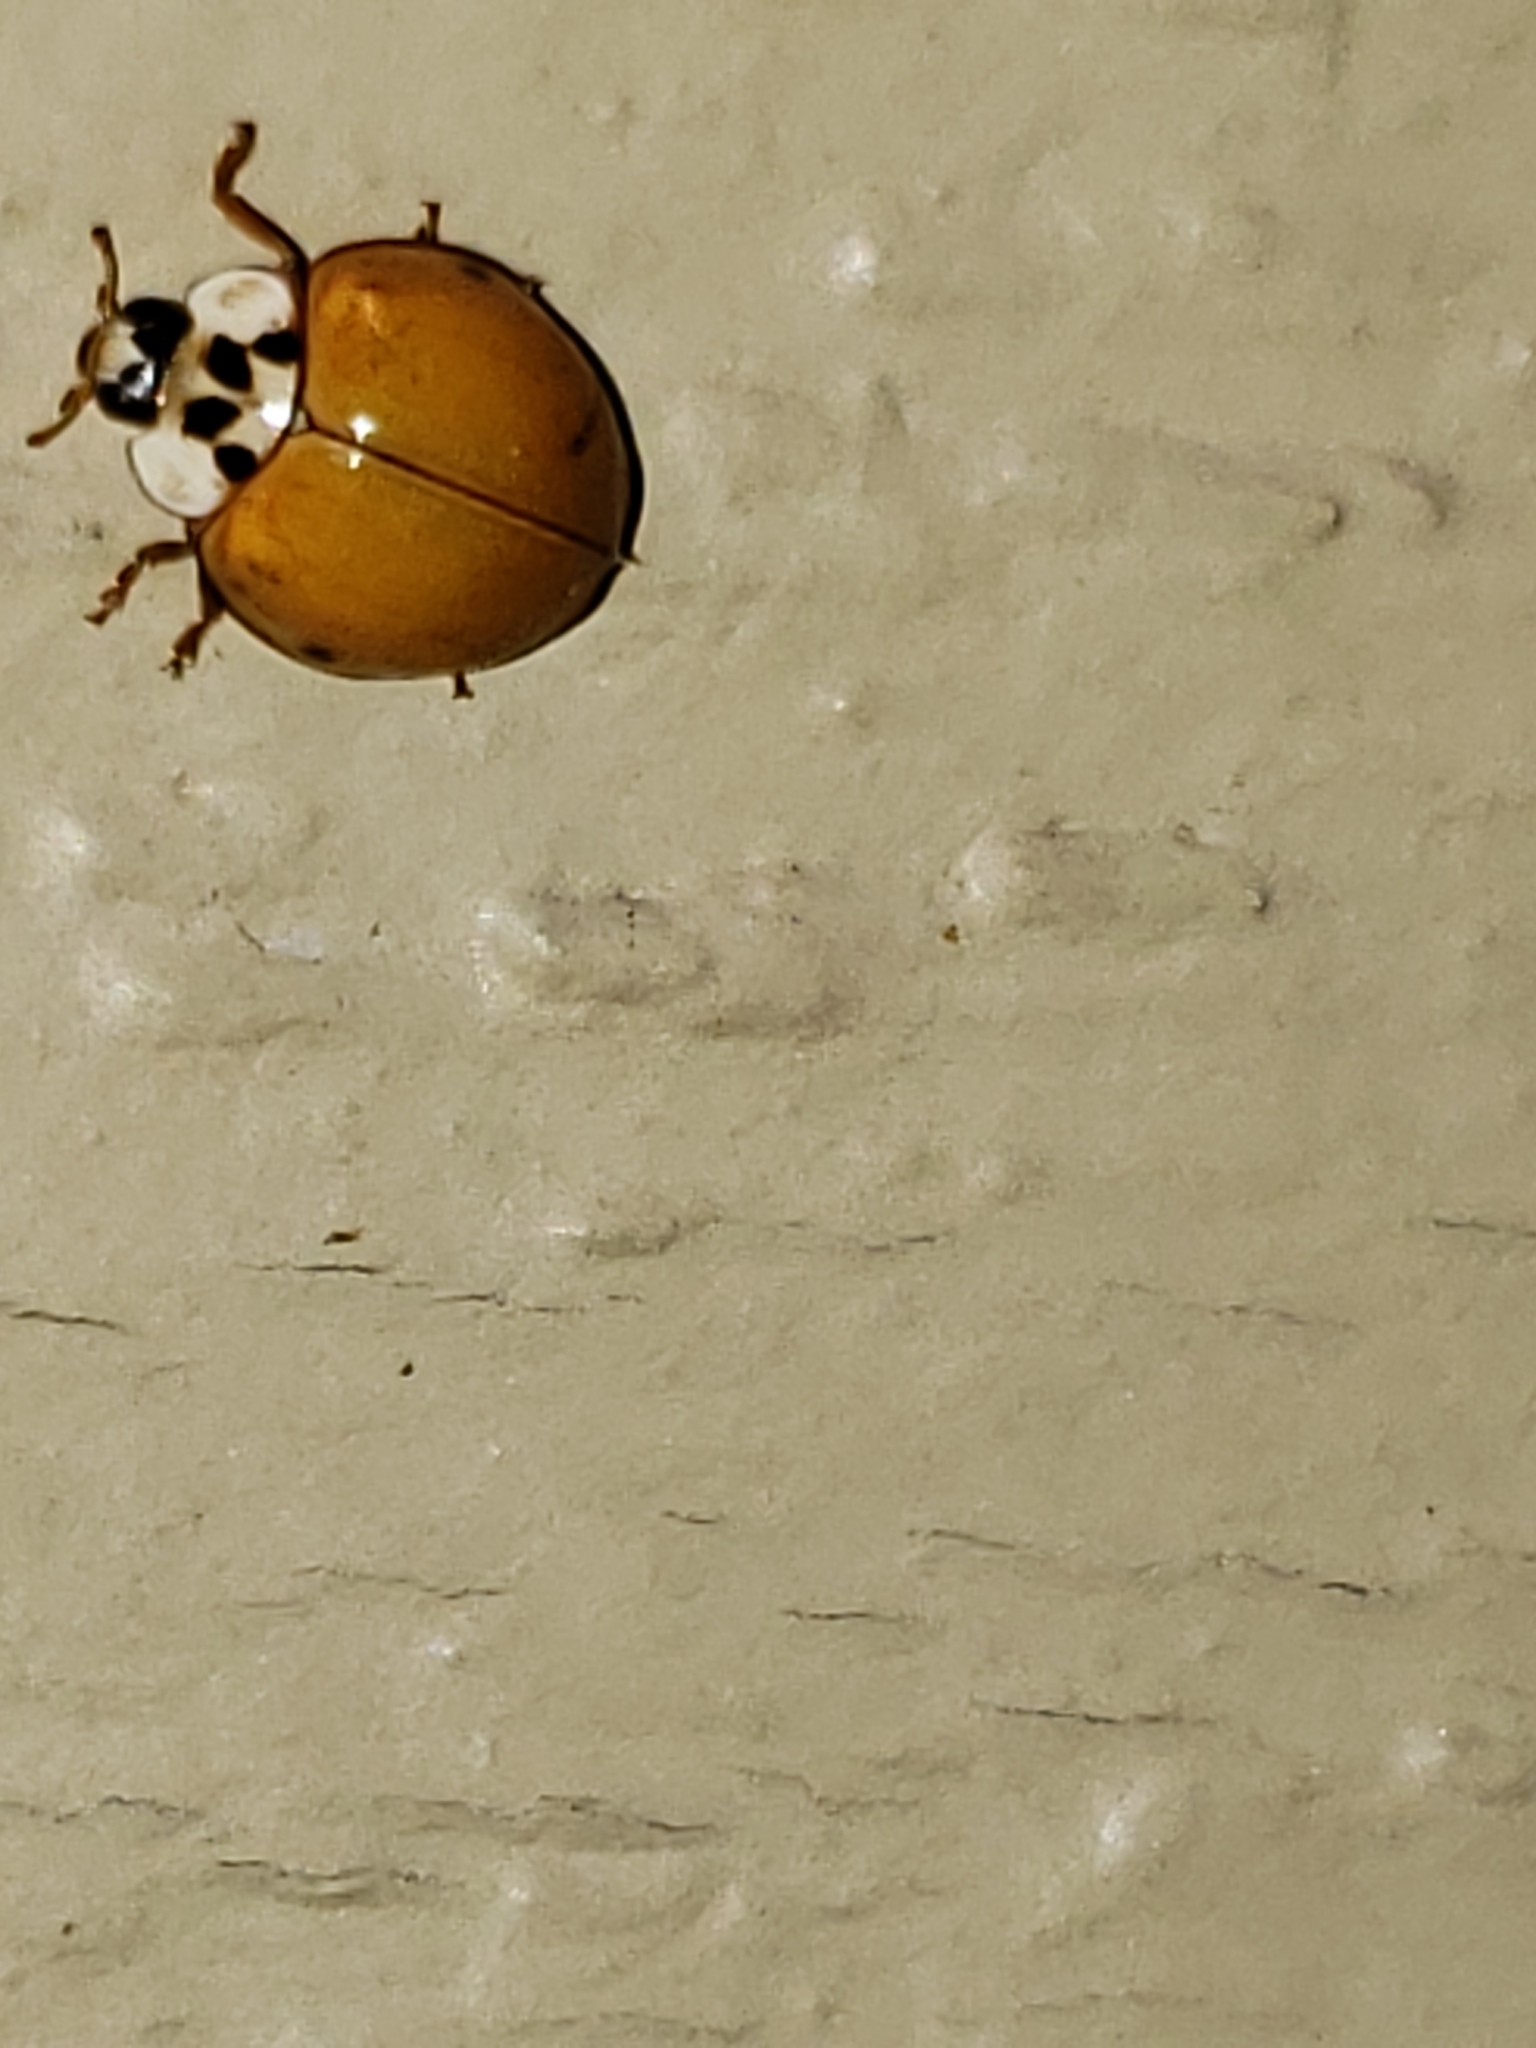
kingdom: Animalia
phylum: Arthropoda
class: Insecta
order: Coleoptera
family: Coccinellidae
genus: Harmonia
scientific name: Harmonia axyridis
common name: Harlequin ladybird
